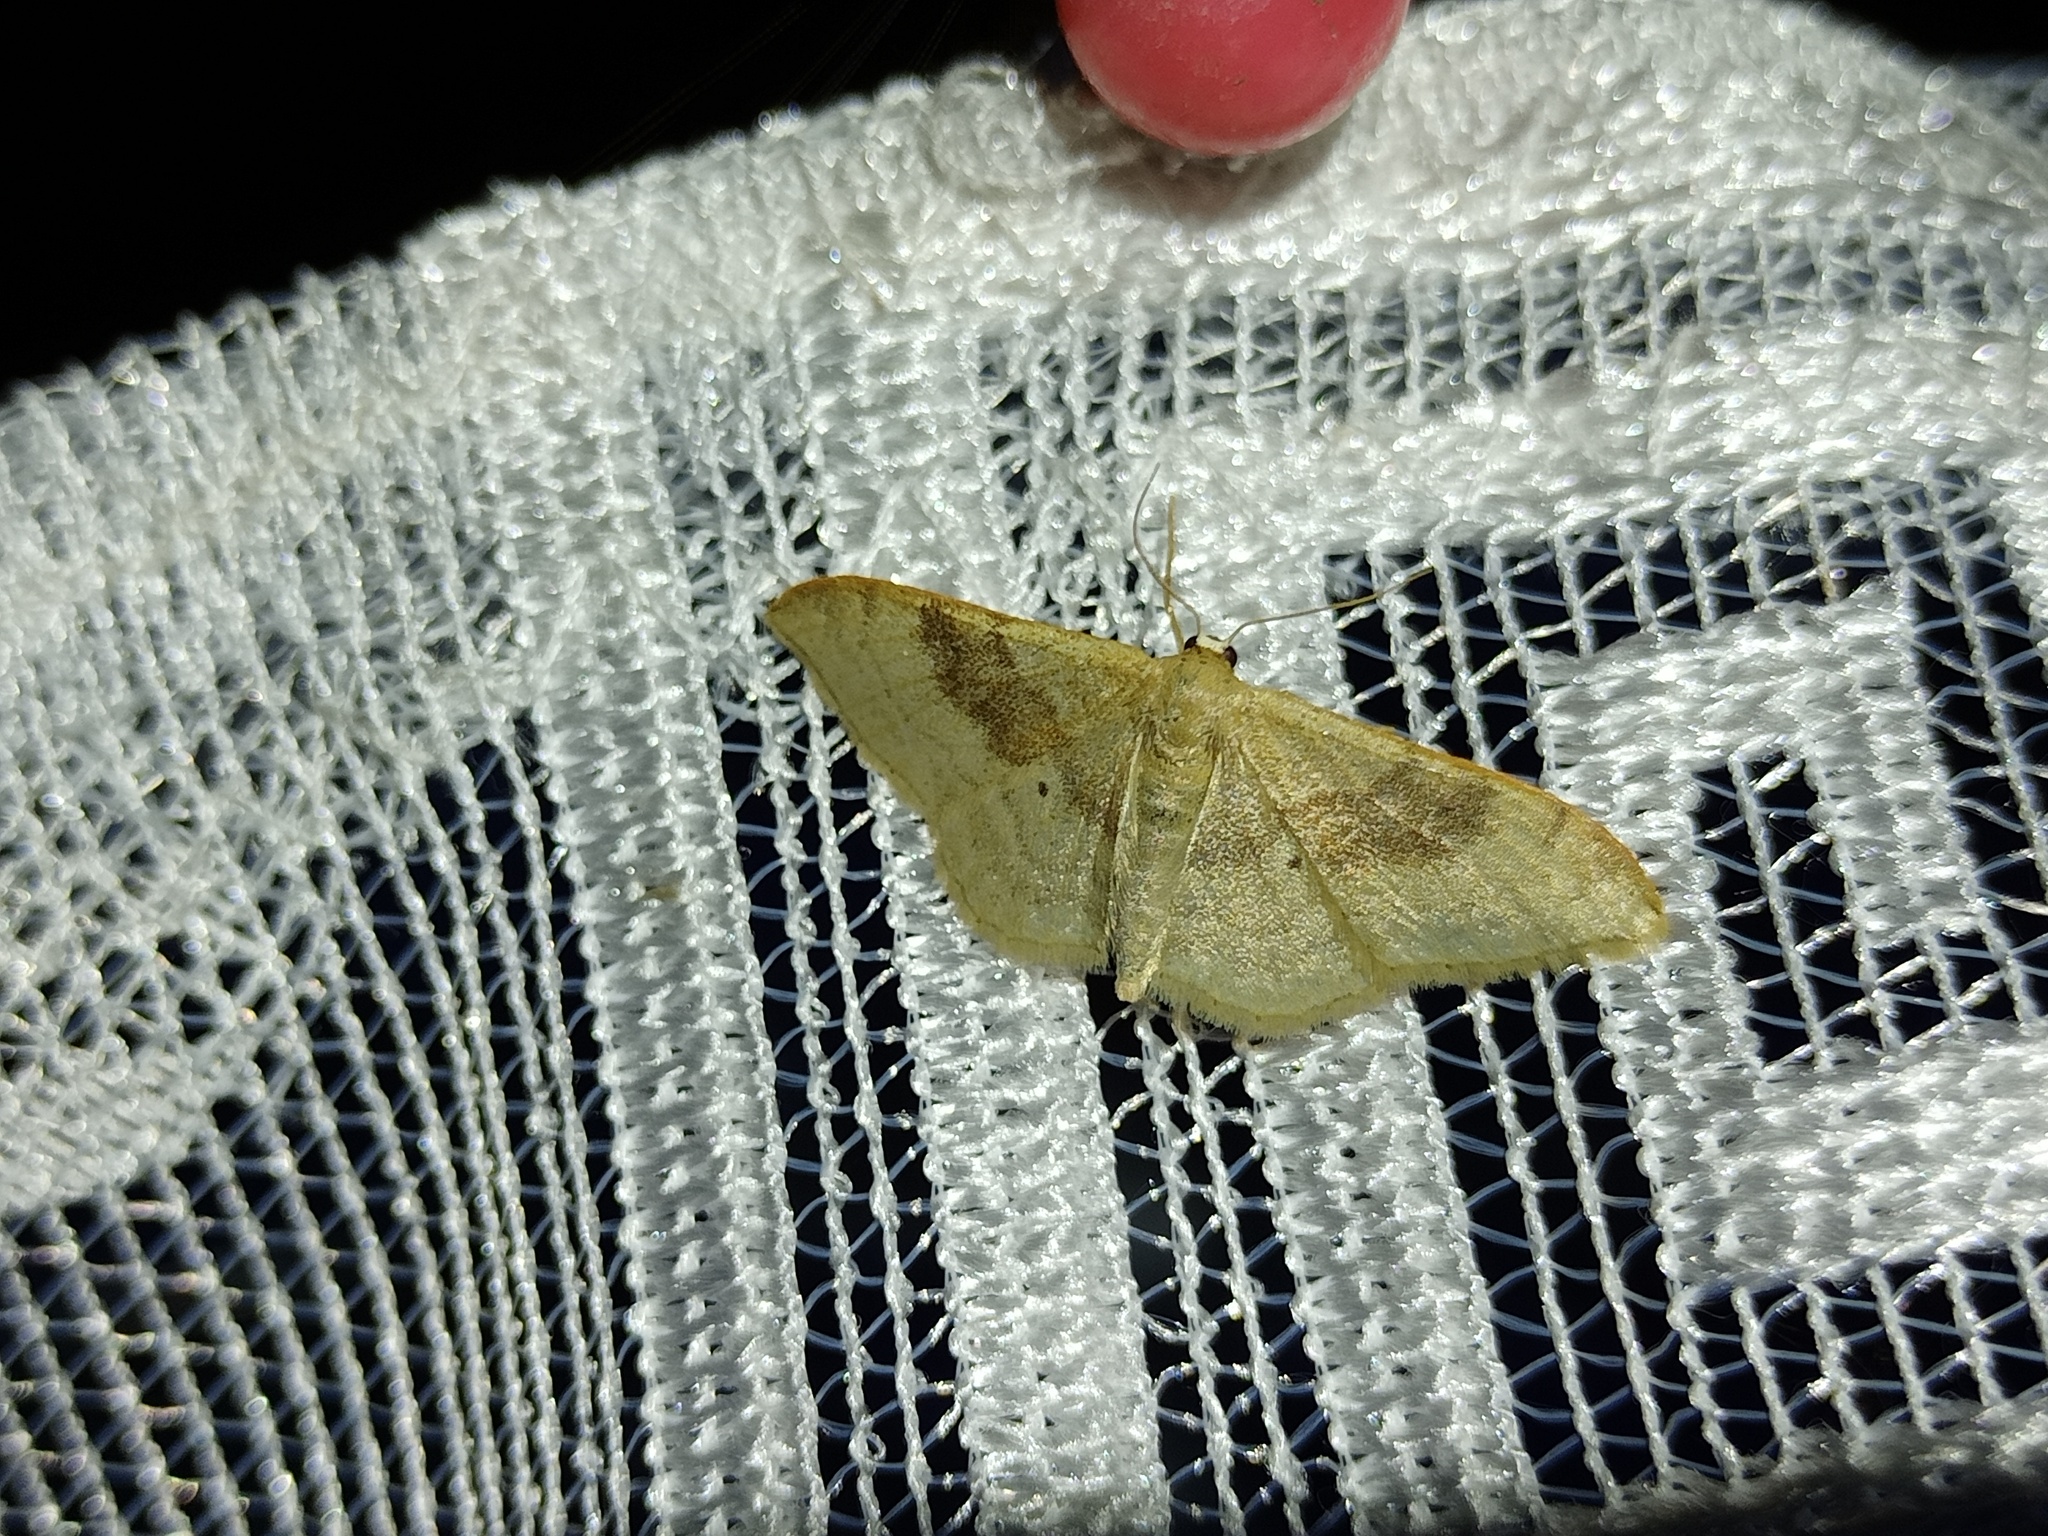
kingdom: Animalia
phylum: Arthropoda
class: Insecta
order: Lepidoptera
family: Geometridae
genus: Idaea
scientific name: Idaea degeneraria
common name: Portland ribbon wave
